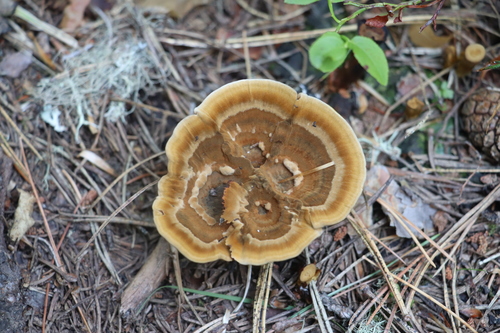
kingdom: Fungi
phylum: Basidiomycota
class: Agaricomycetes
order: Hymenochaetales
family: Hymenochaetaceae
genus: Coltricia
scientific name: Coltricia perennis
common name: Tiger's eye
